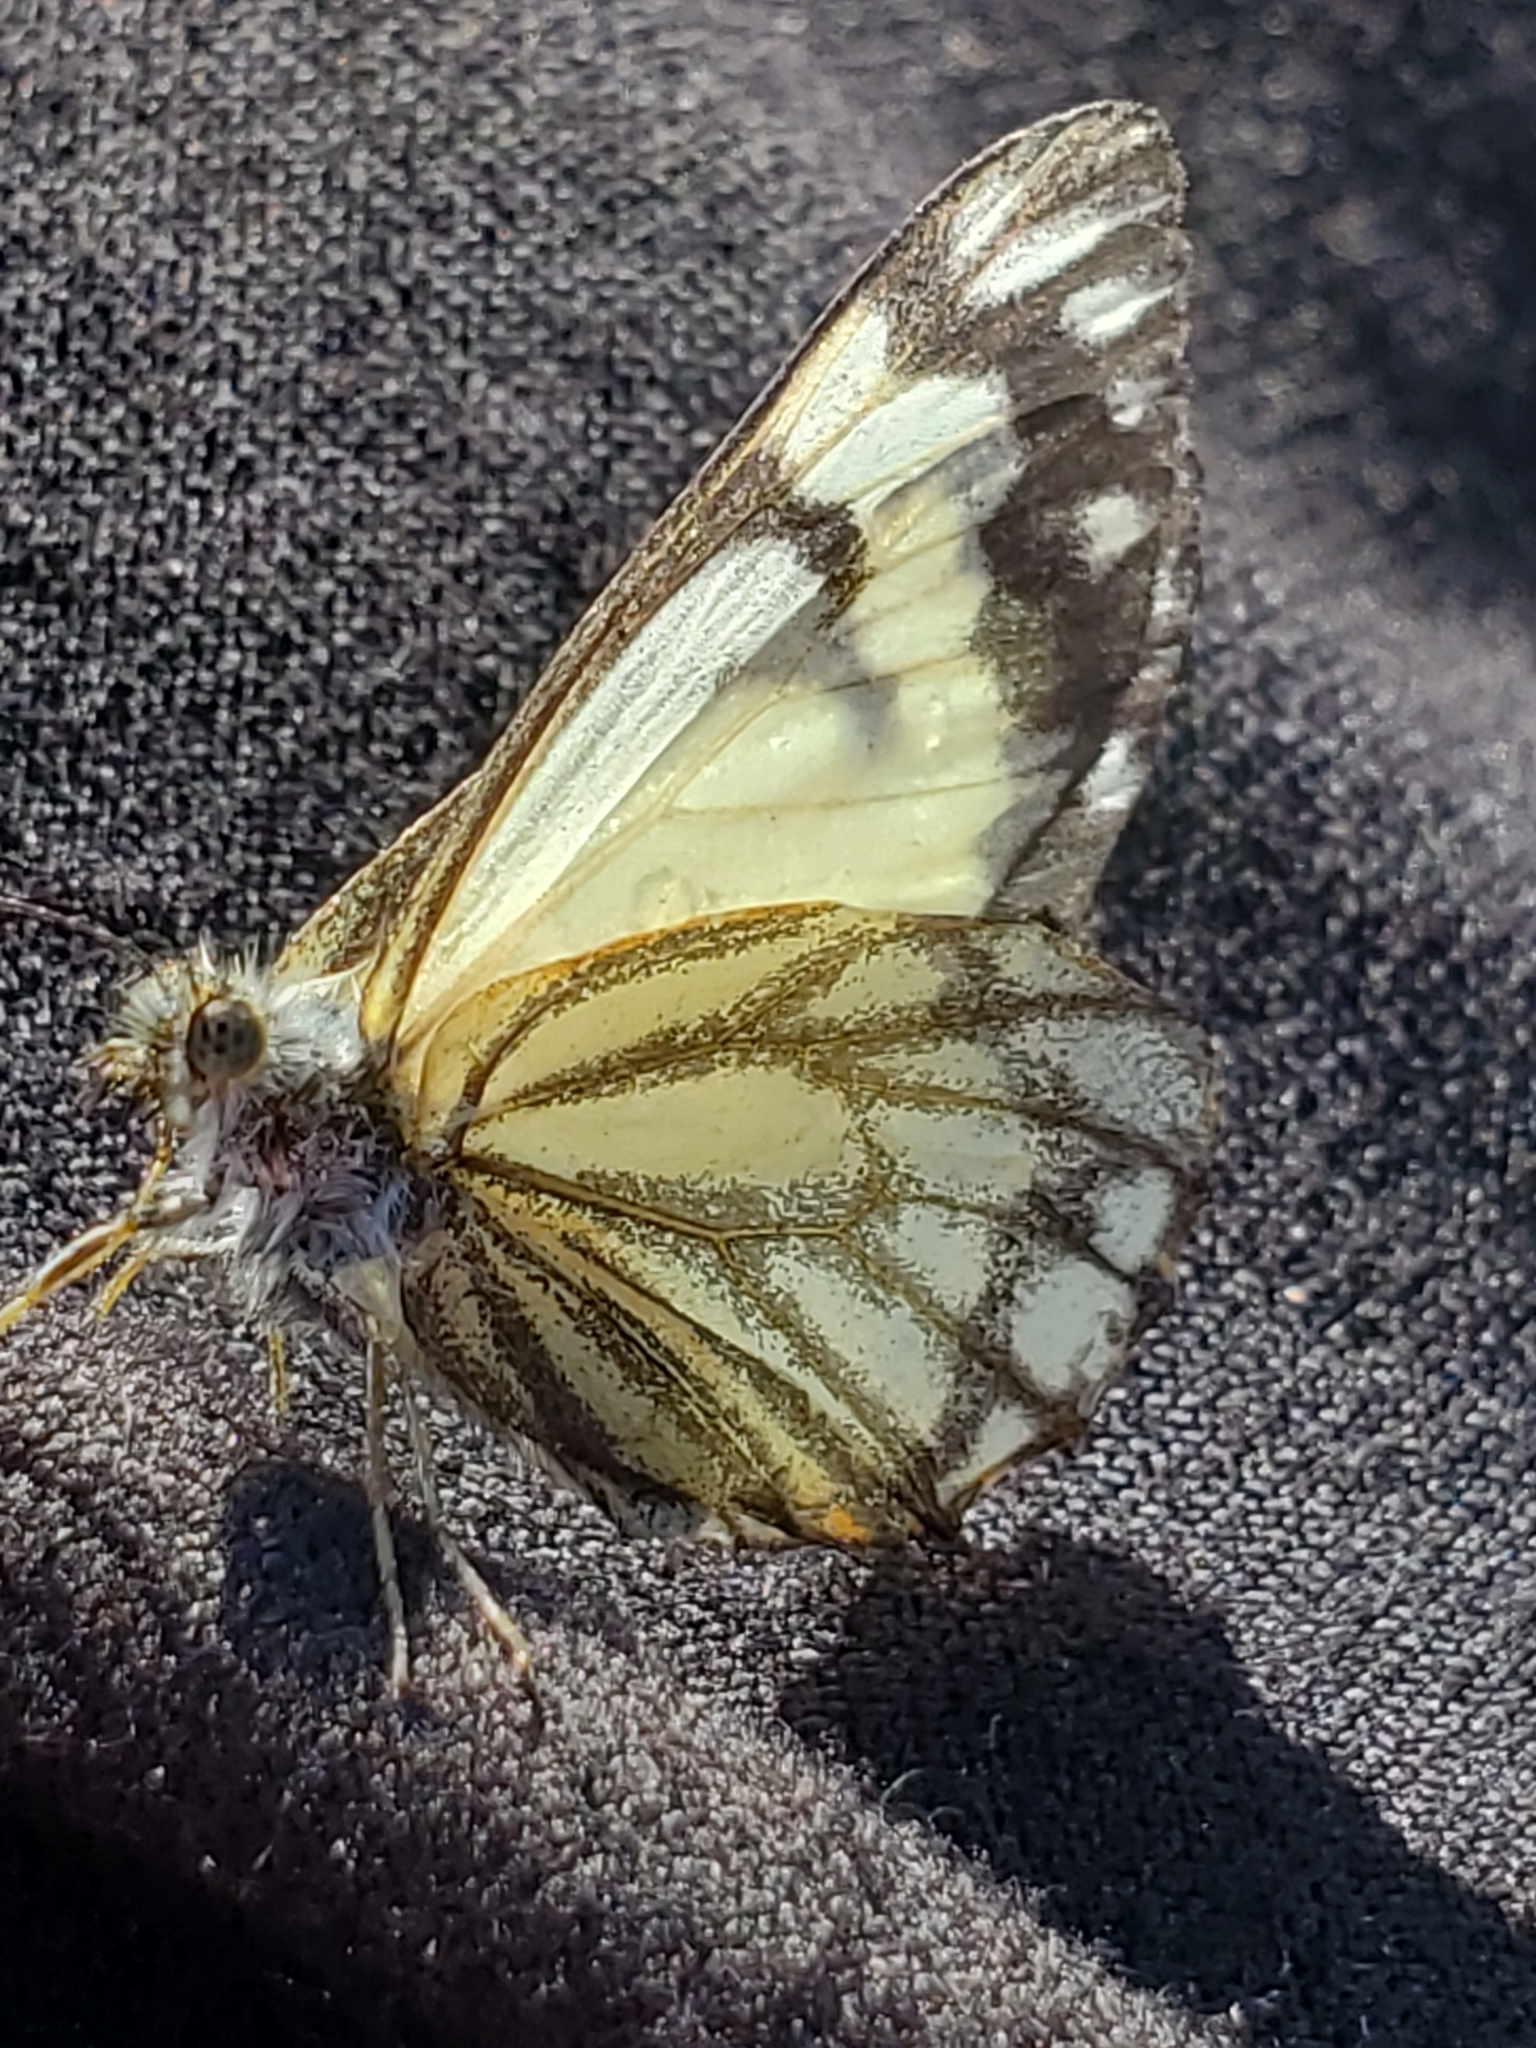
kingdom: Animalia
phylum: Arthropoda
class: Insecta
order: Lepidoptera
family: Pieridae
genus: Neophasia
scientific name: Neophasia menapia
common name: Pine white
